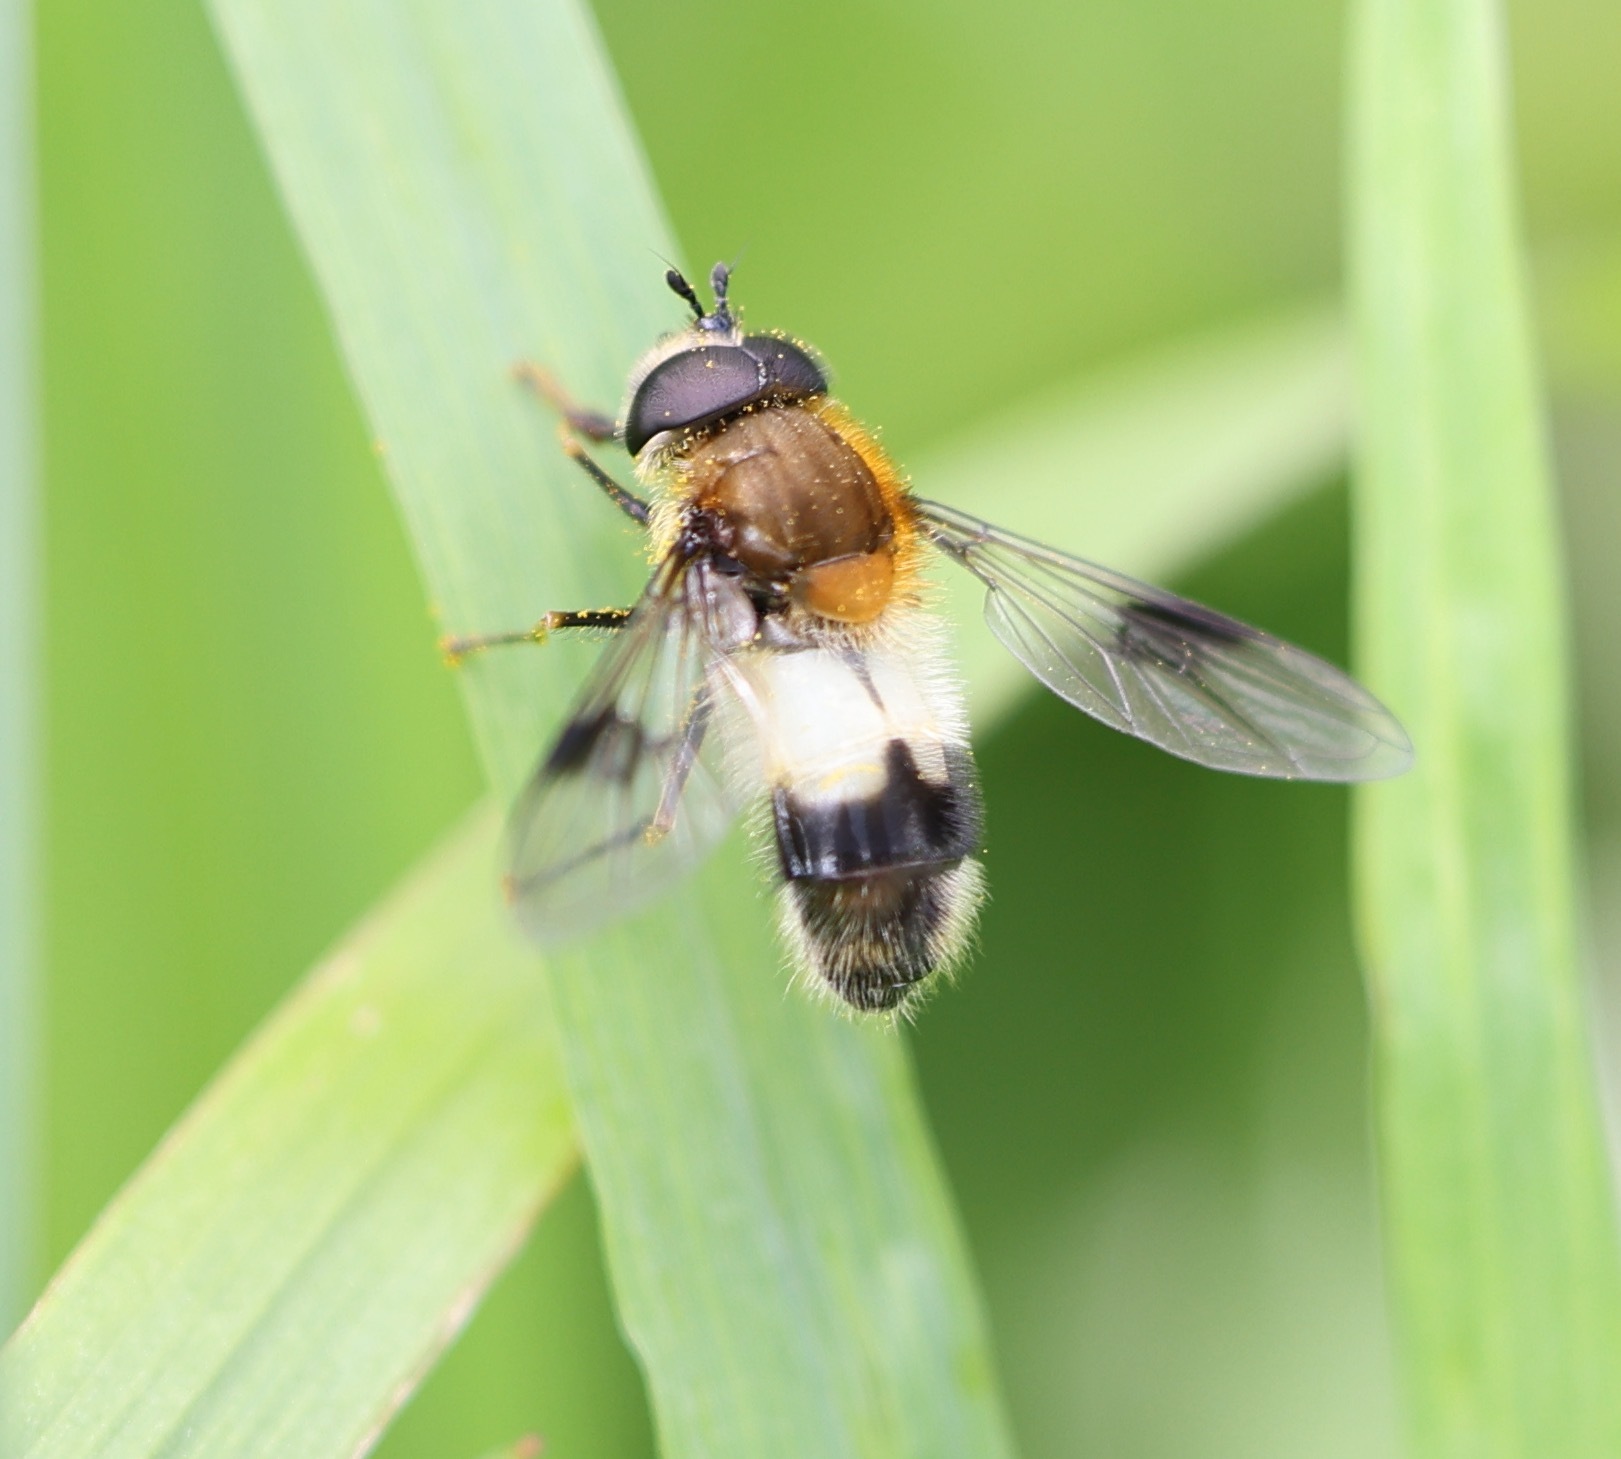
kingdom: Animalia
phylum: Arthropoda
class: Insecta
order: Diptera
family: Syrphidae
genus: Leucozona
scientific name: Leucozona lucorum
